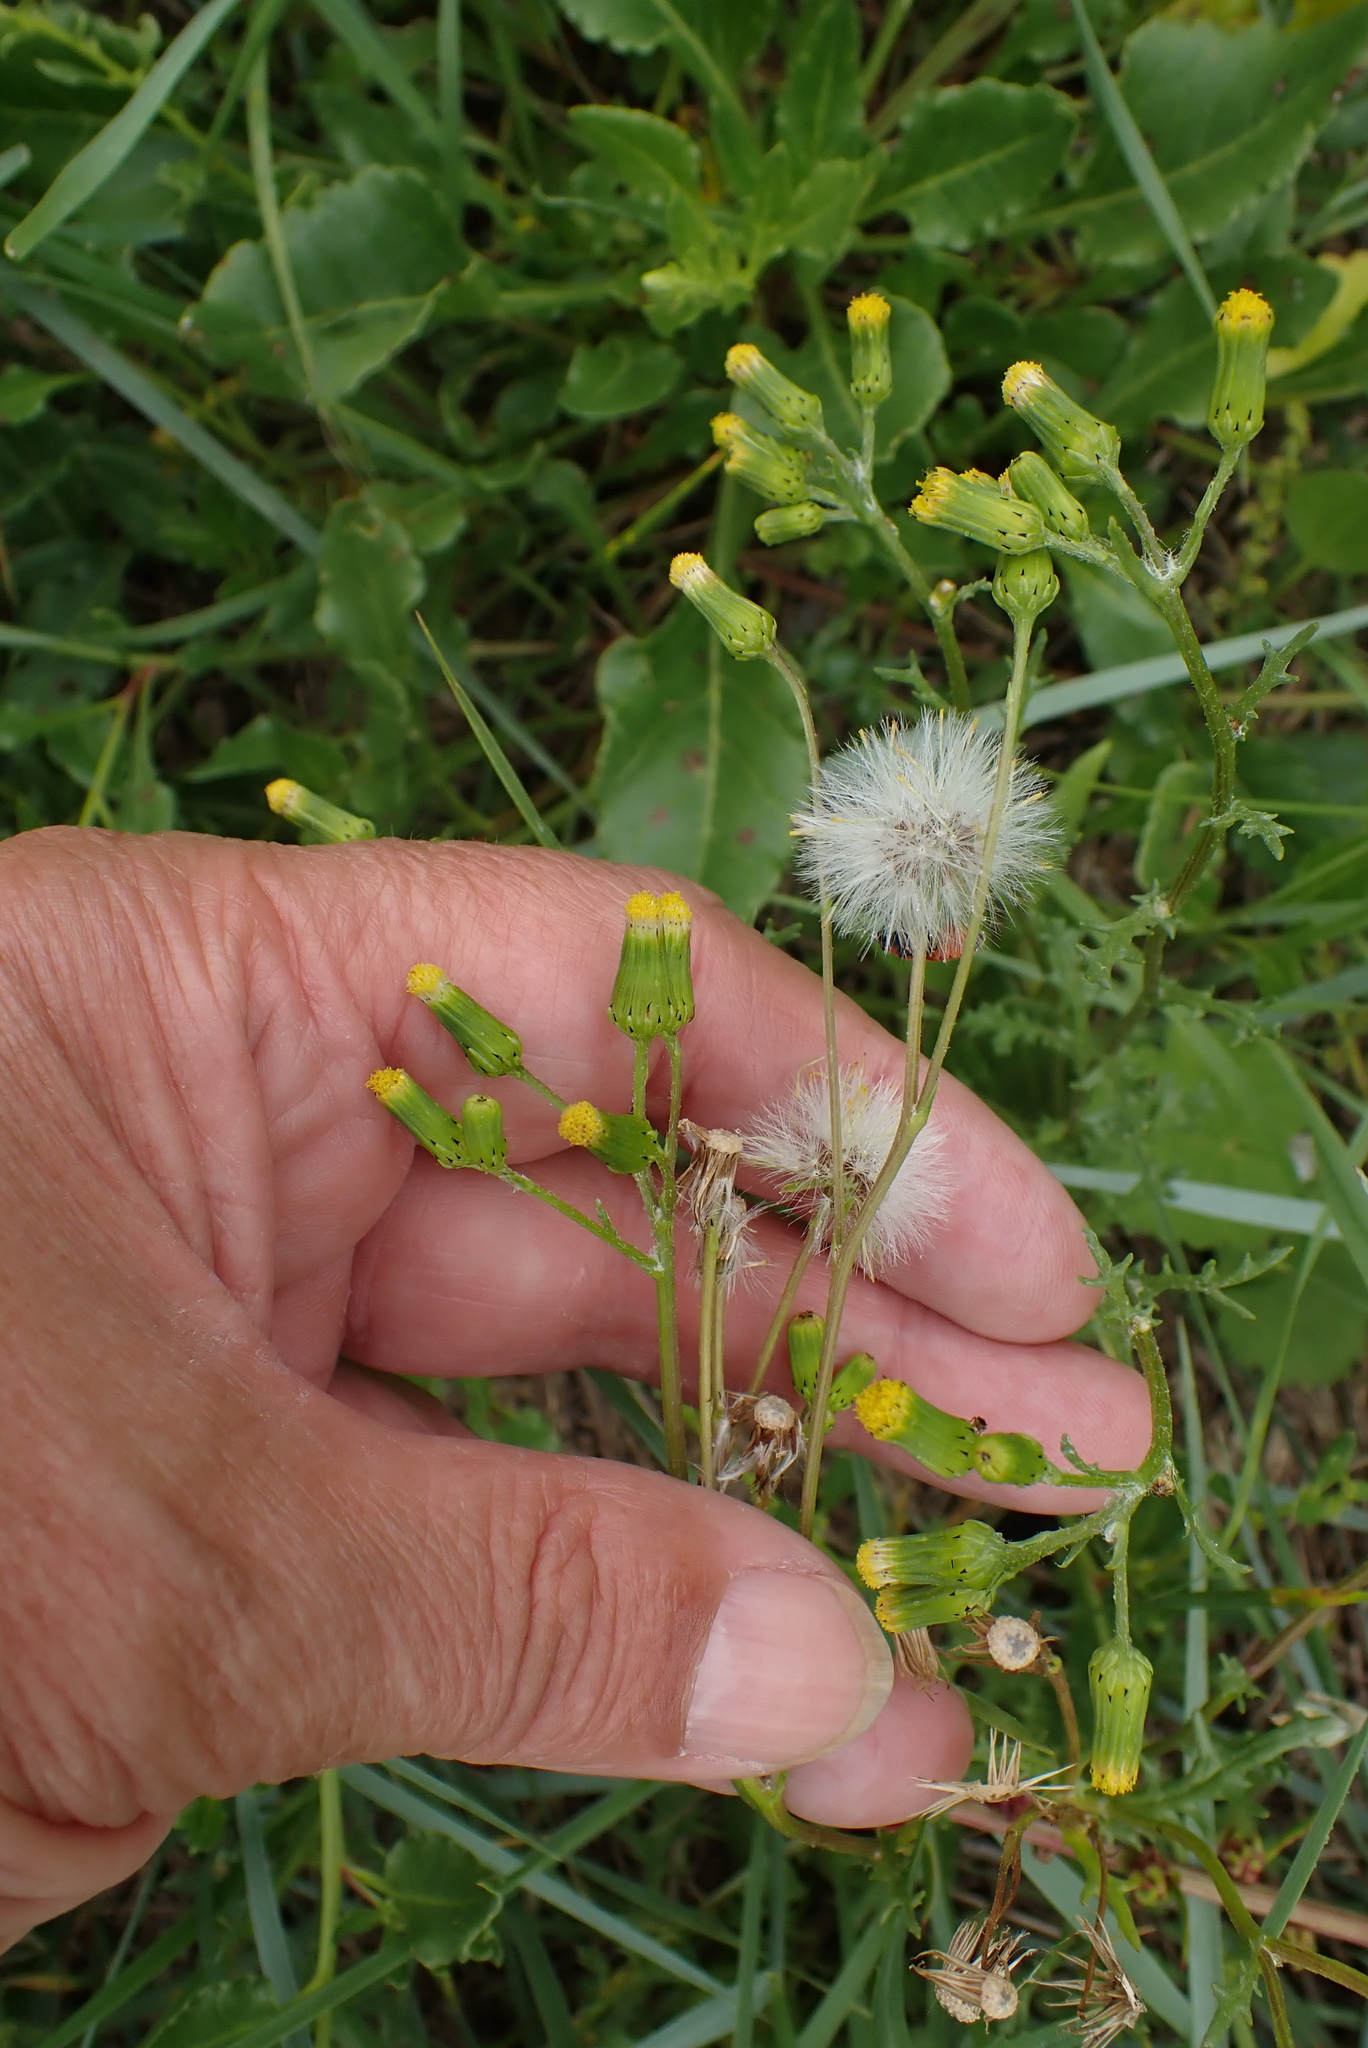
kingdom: Plantae
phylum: Tracheophyta
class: Magnoliopsida
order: Asterales
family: Asteraceae
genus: Senecio
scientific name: Senecio vulgaris
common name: Old-man-in-the-spring
